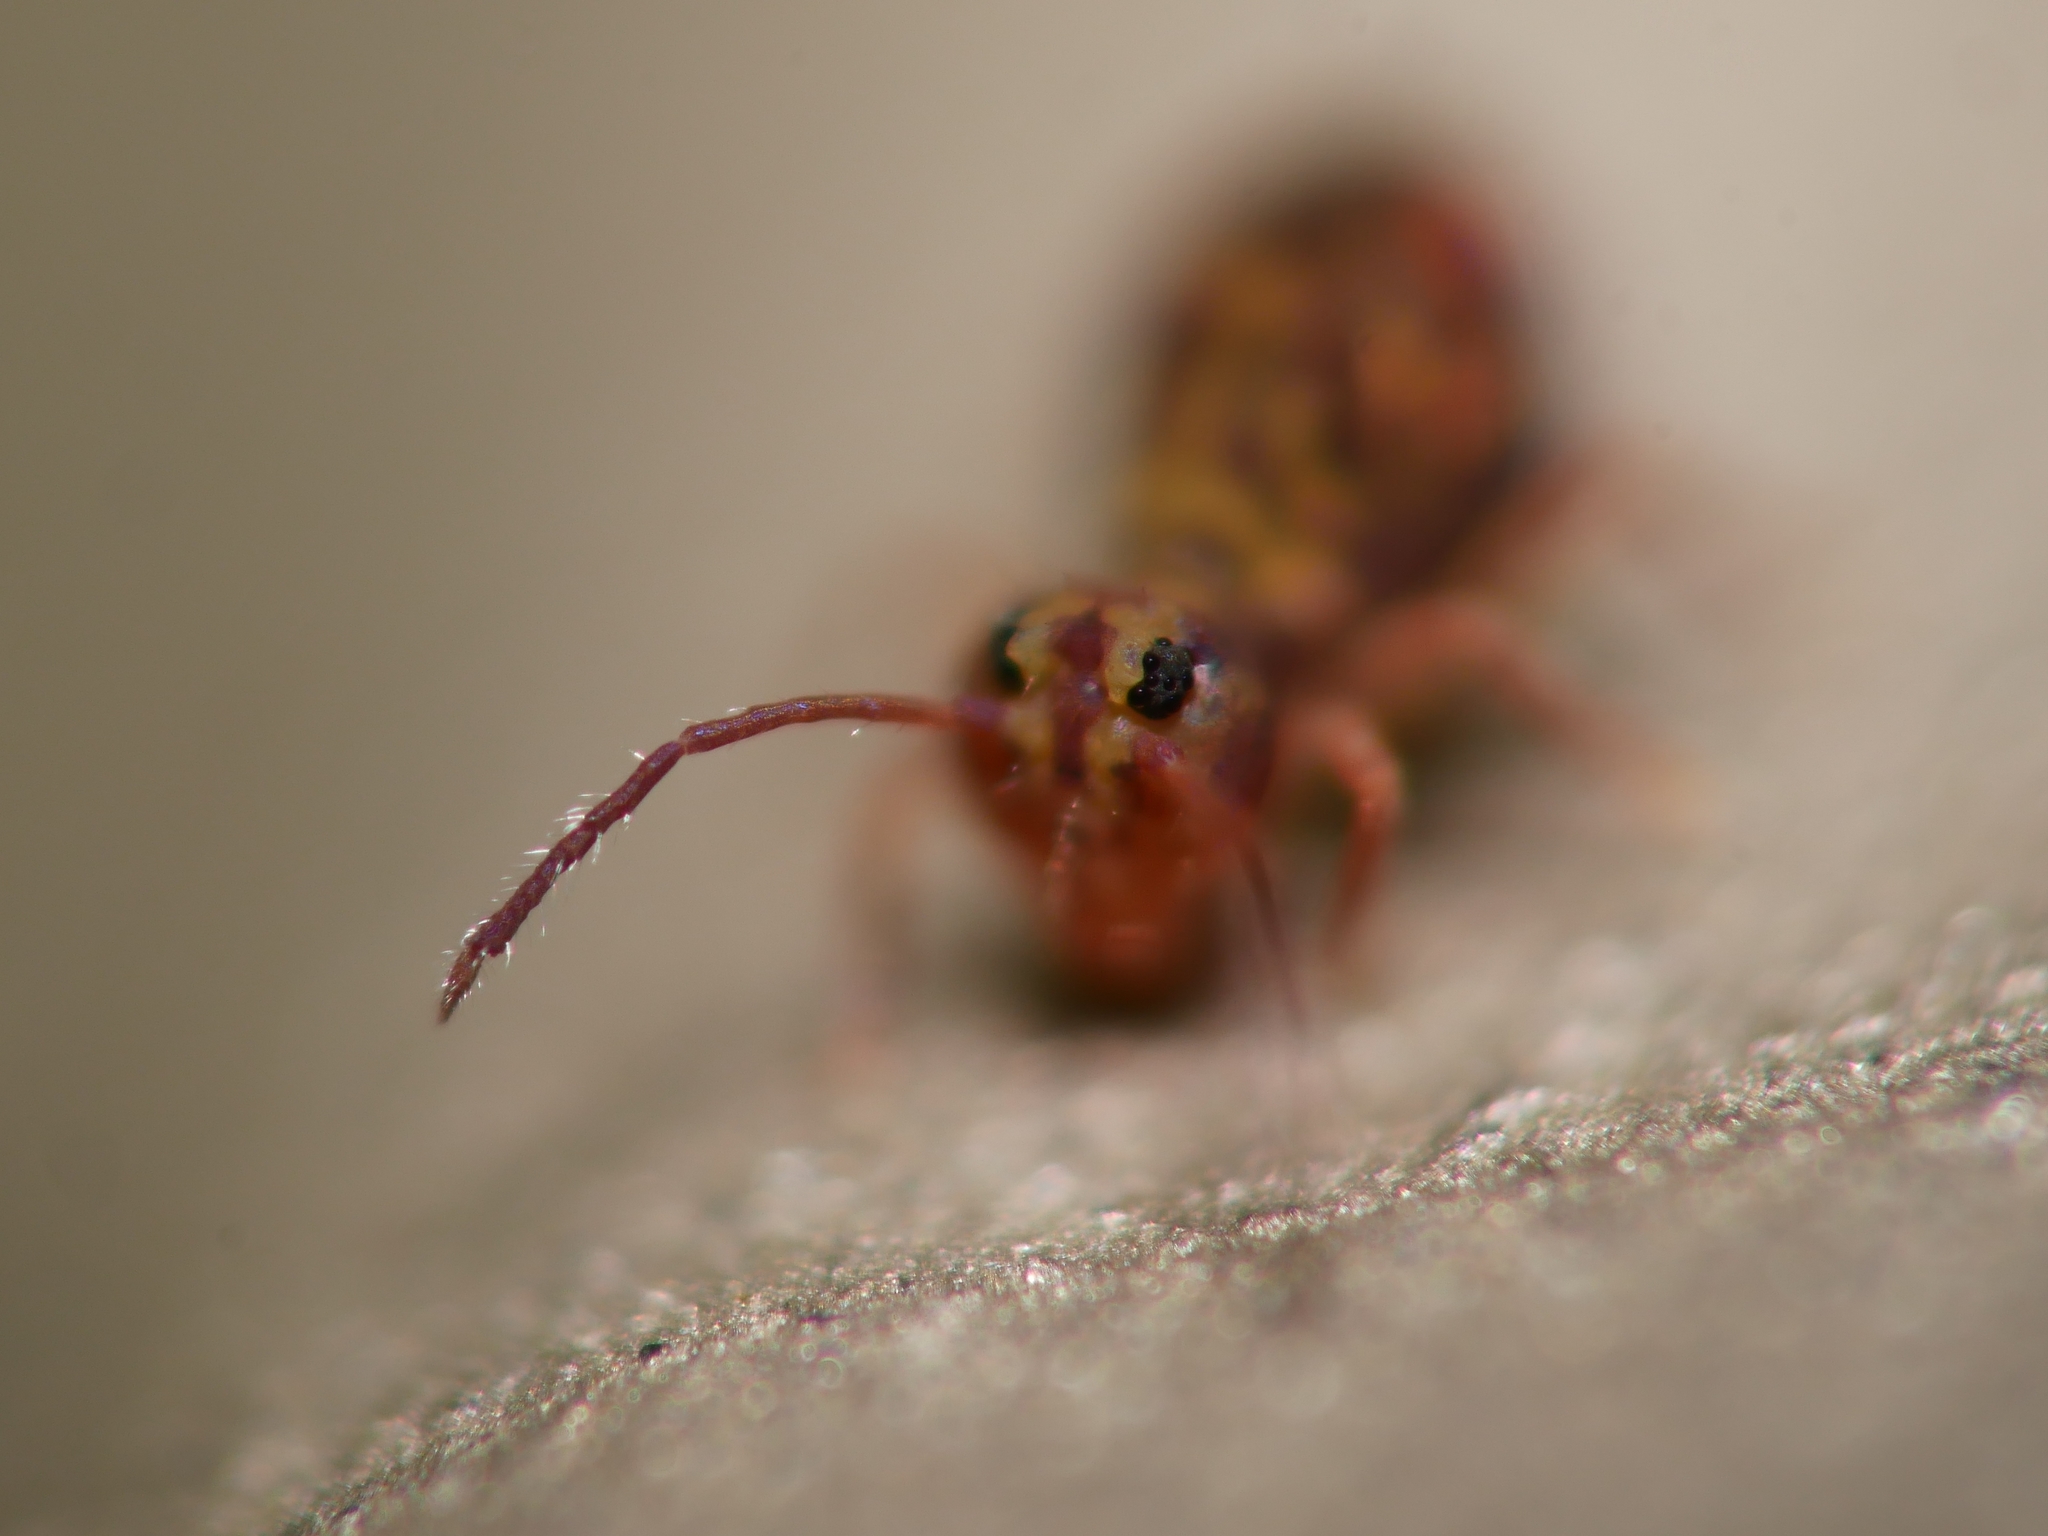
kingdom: Animalia
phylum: Arthropoda
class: Collembola
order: Symphypleona
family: Dicyrtomidae
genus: Dicyrtomina
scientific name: Dicyrtomina ornata
